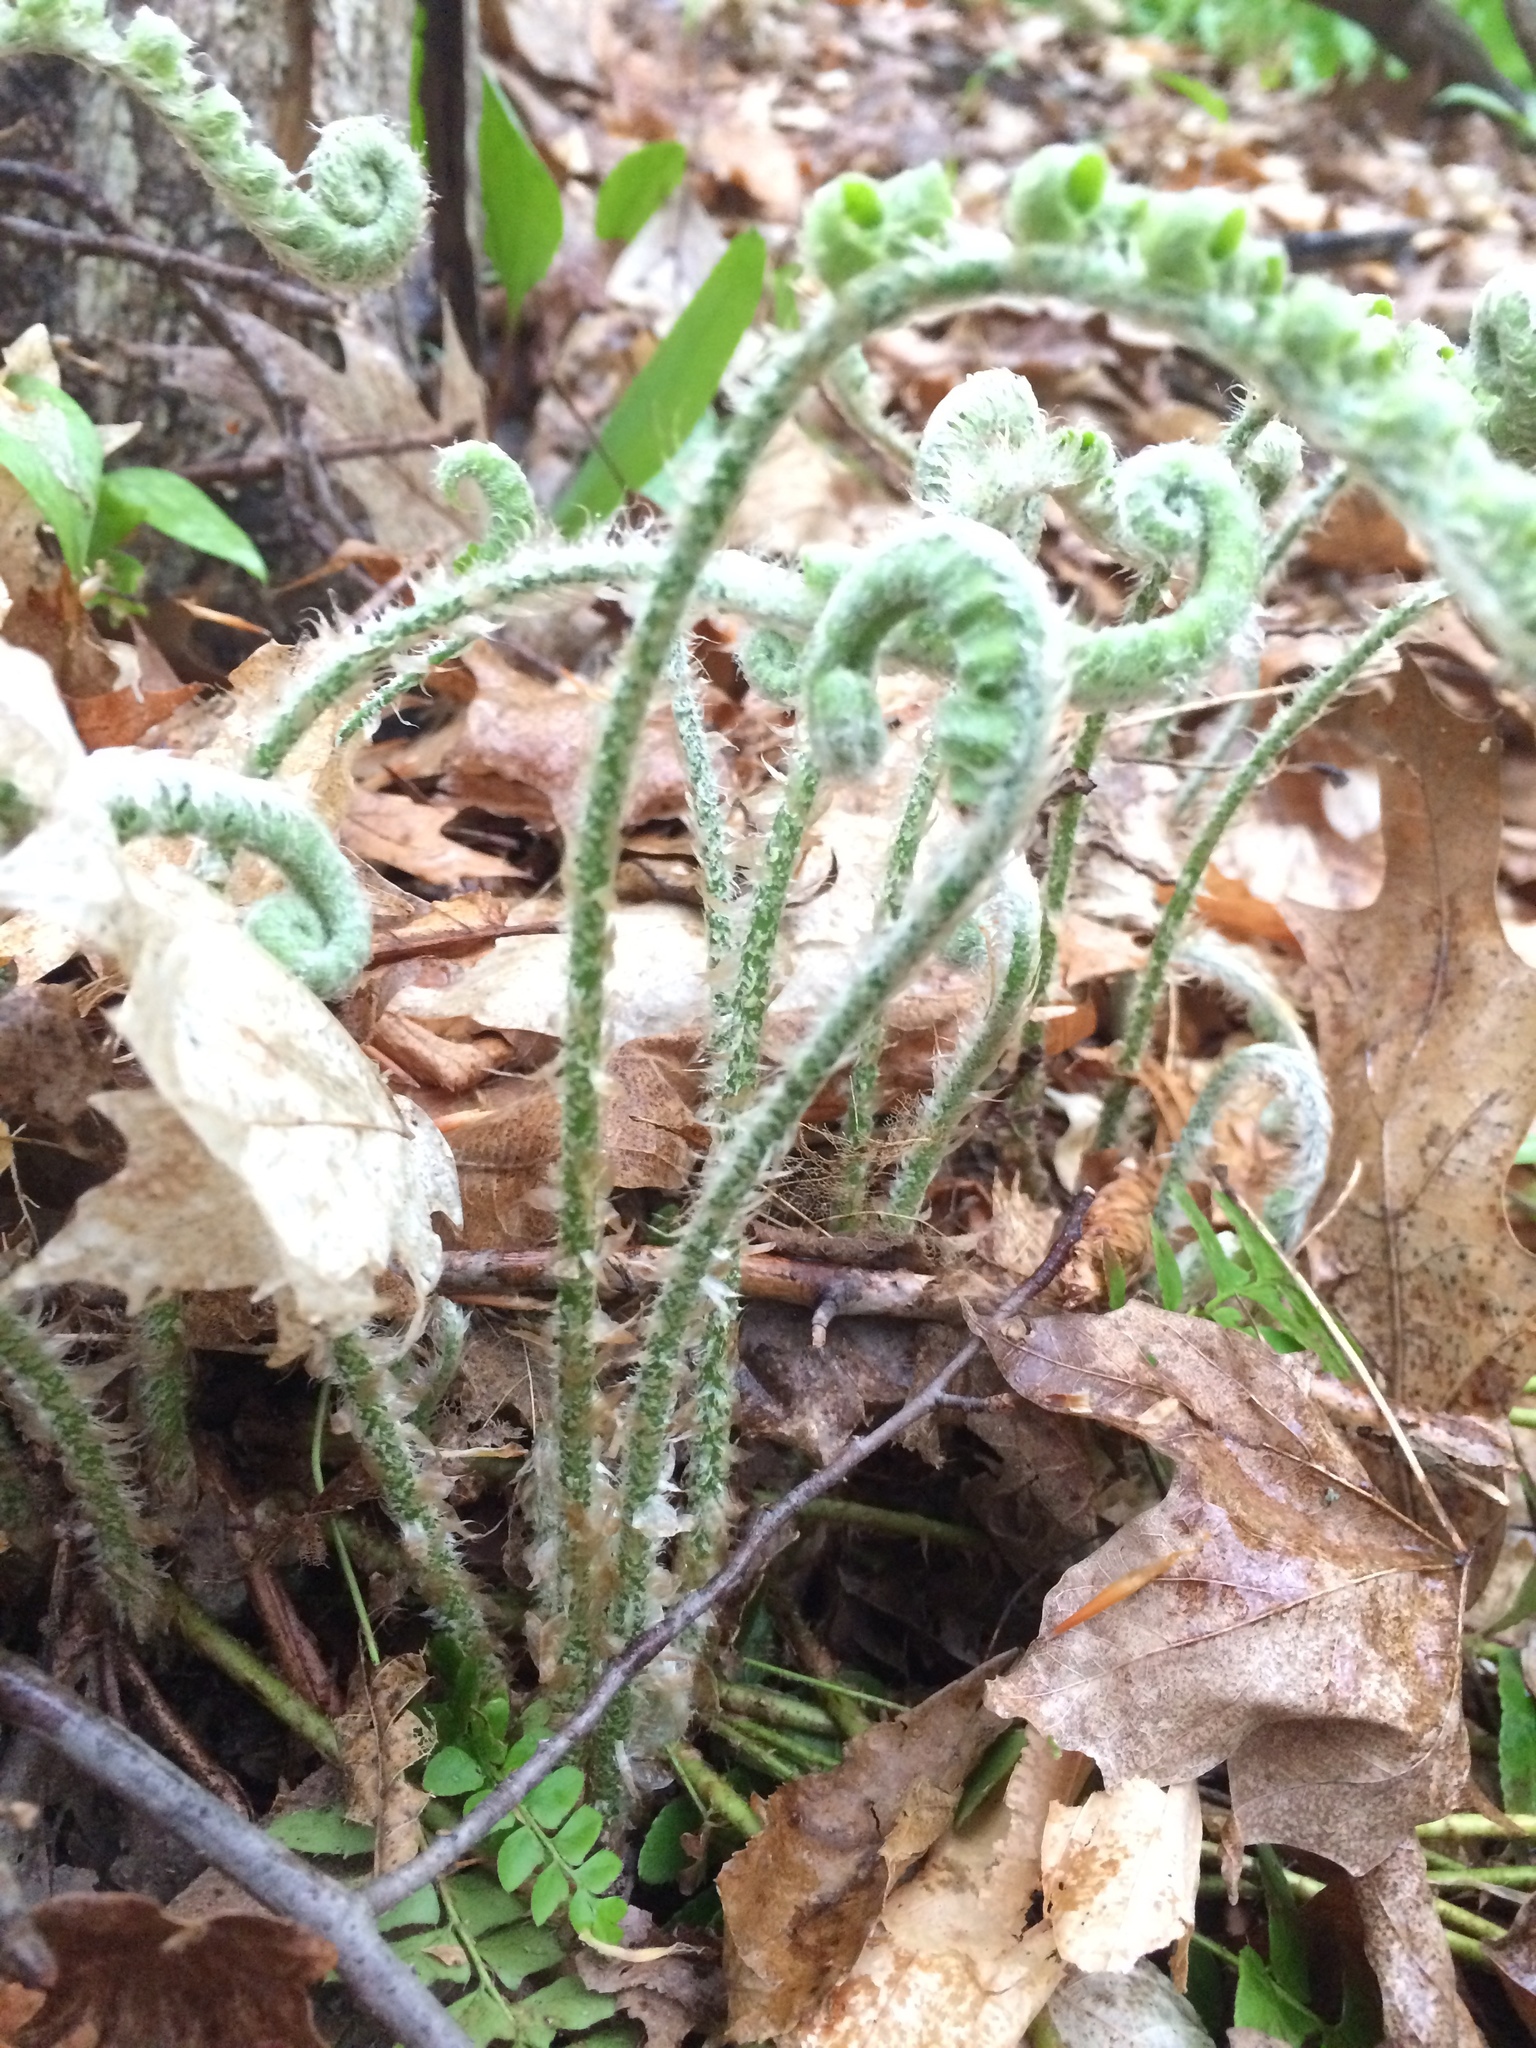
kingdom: Plantae
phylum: Tracheophyta
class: Polypodiopsida
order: Polypodiales
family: Dryopteridaceae
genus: Polystichum
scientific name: Polystichum acrostichoides
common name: Christmas fern
